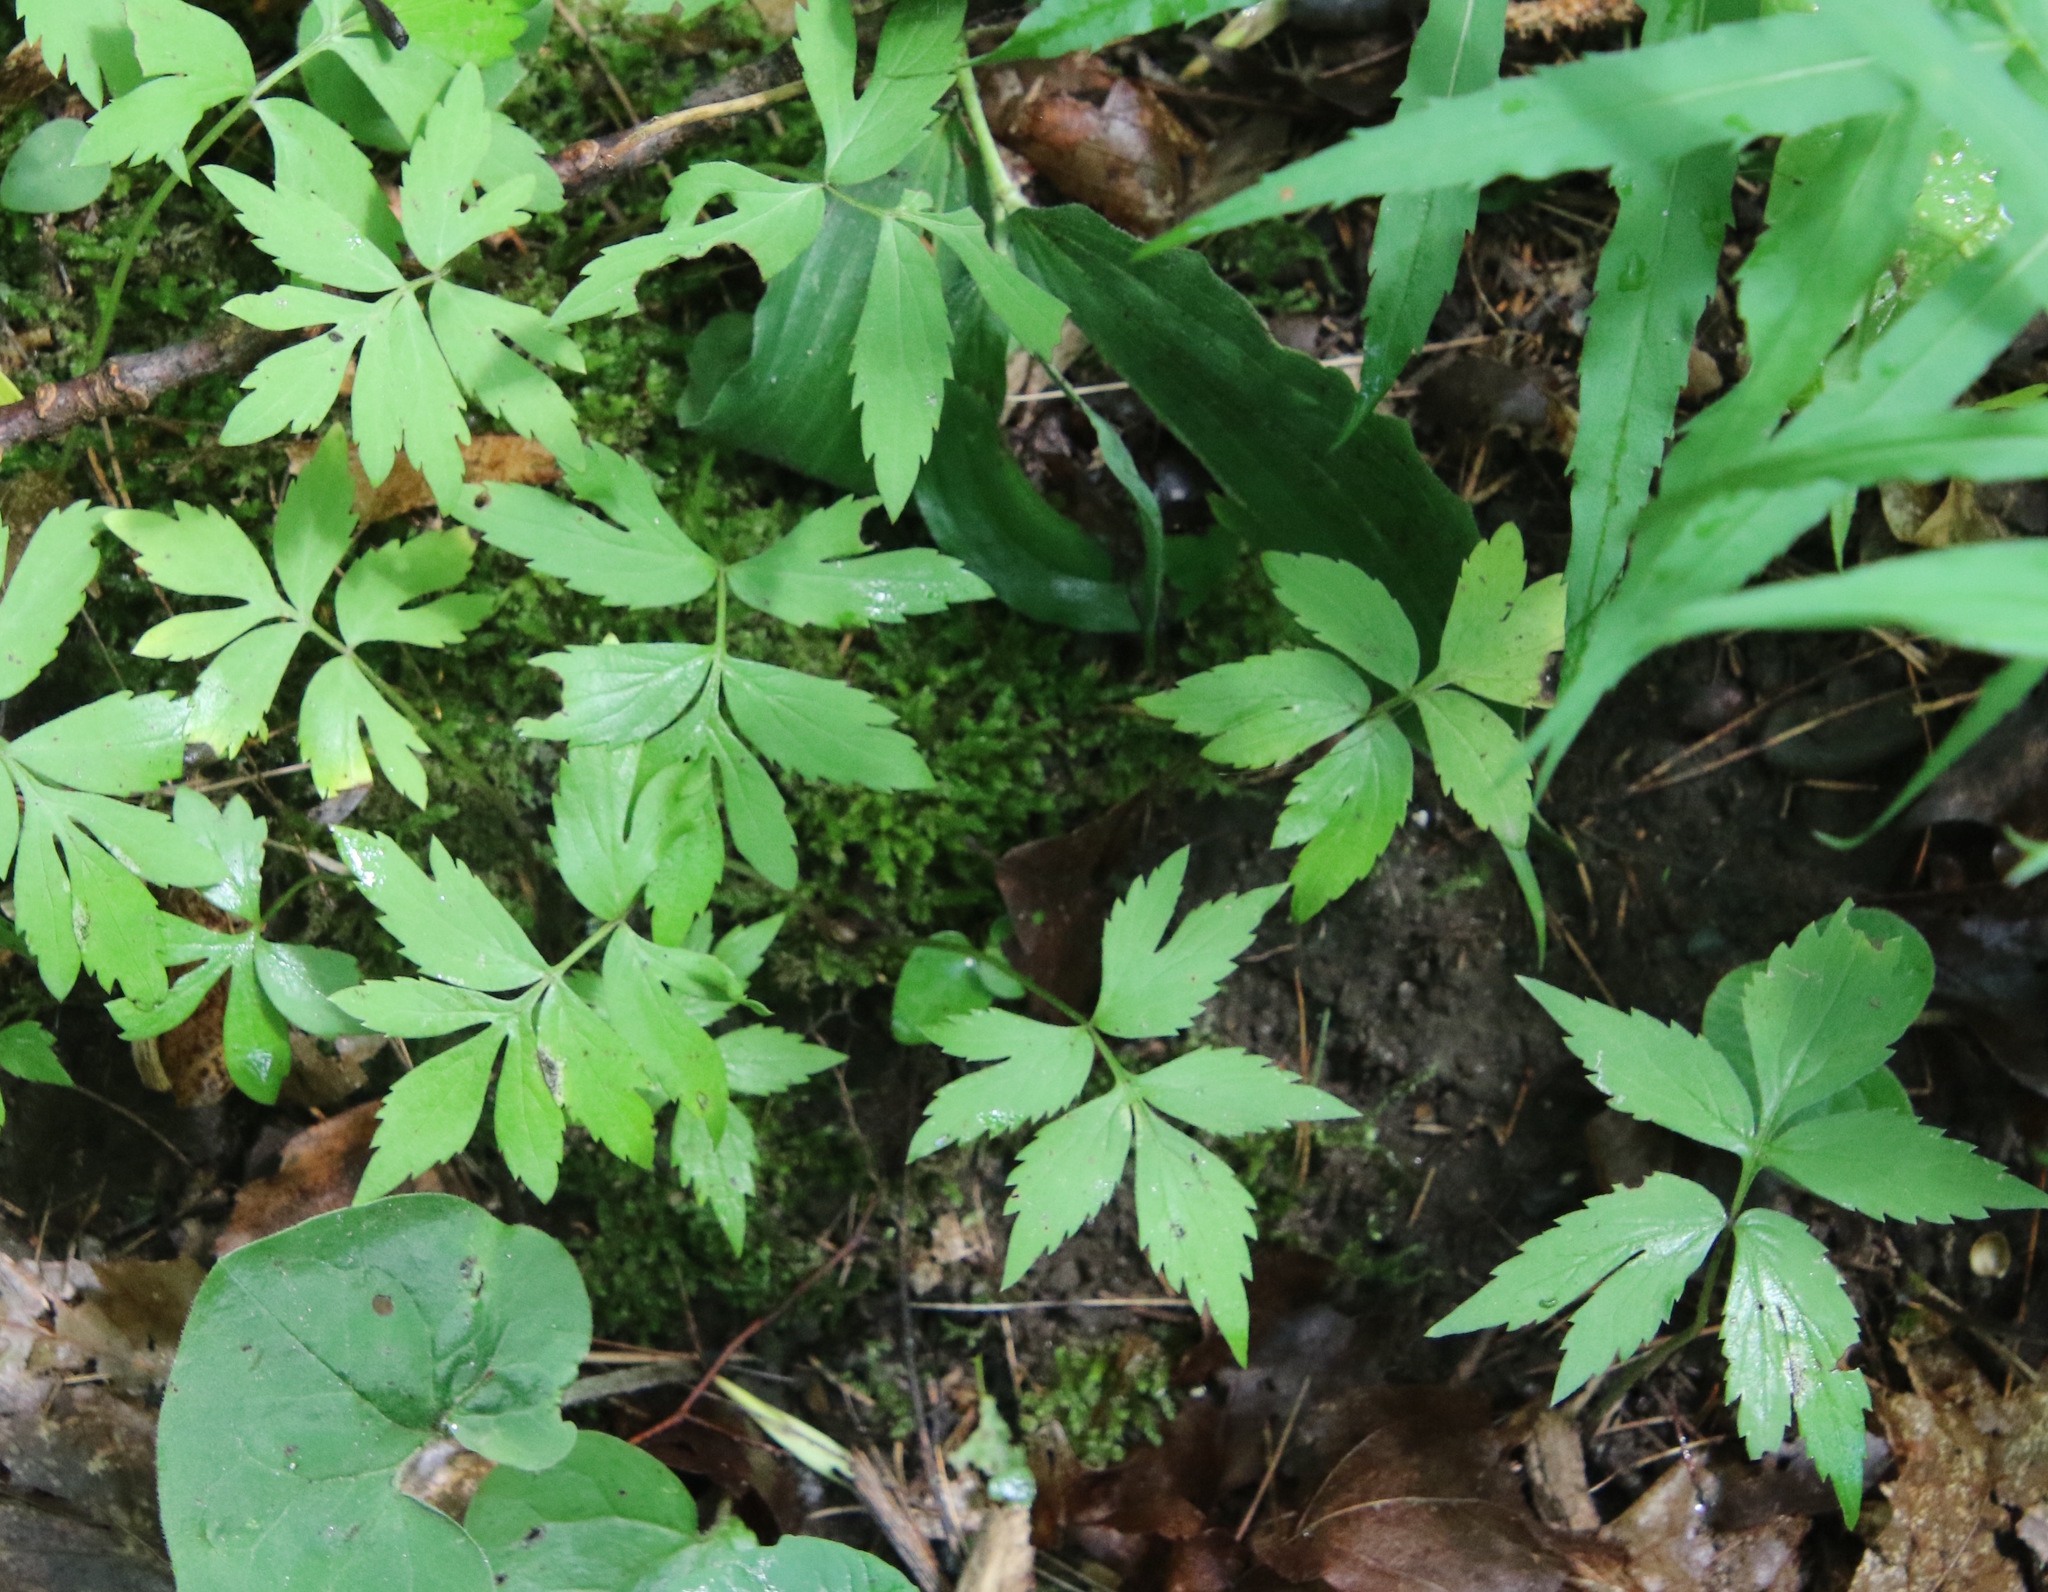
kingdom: Plantae
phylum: Tracheophyta
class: Magnoliopsida
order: Boraginales
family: Hydrophyllaceae
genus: Hydrophyllum
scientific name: Hydrophyllum virginianum
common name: Virginia waterleaf
